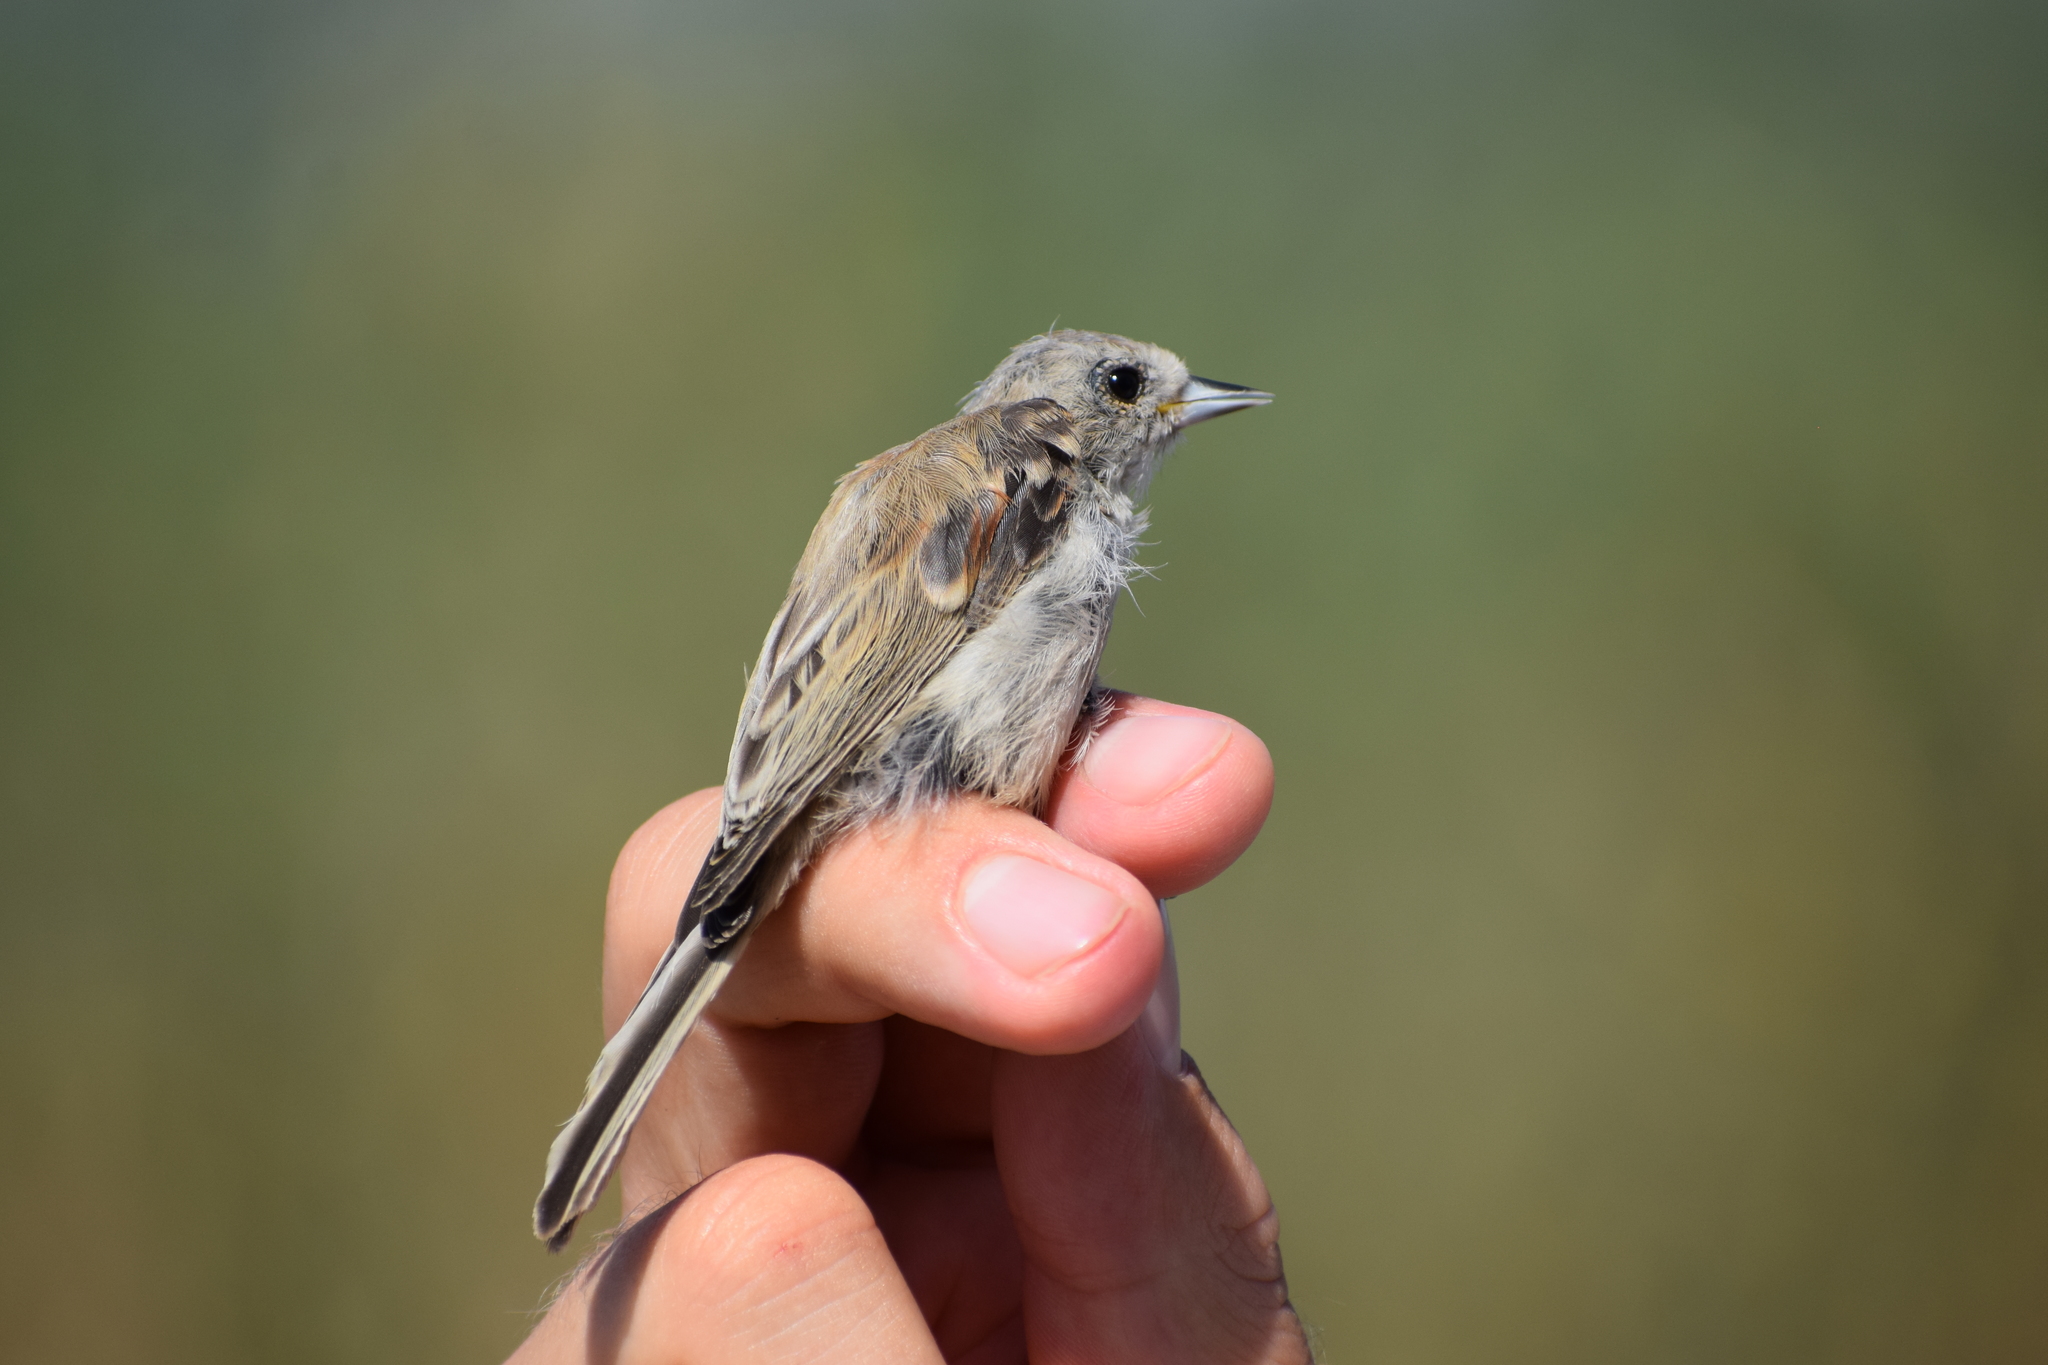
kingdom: Animalia
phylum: Chordata
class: Aves
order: Passeriformes
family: Remizidae
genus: Remiz
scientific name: Remiz pendulinus
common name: Eurasian penduline tit
